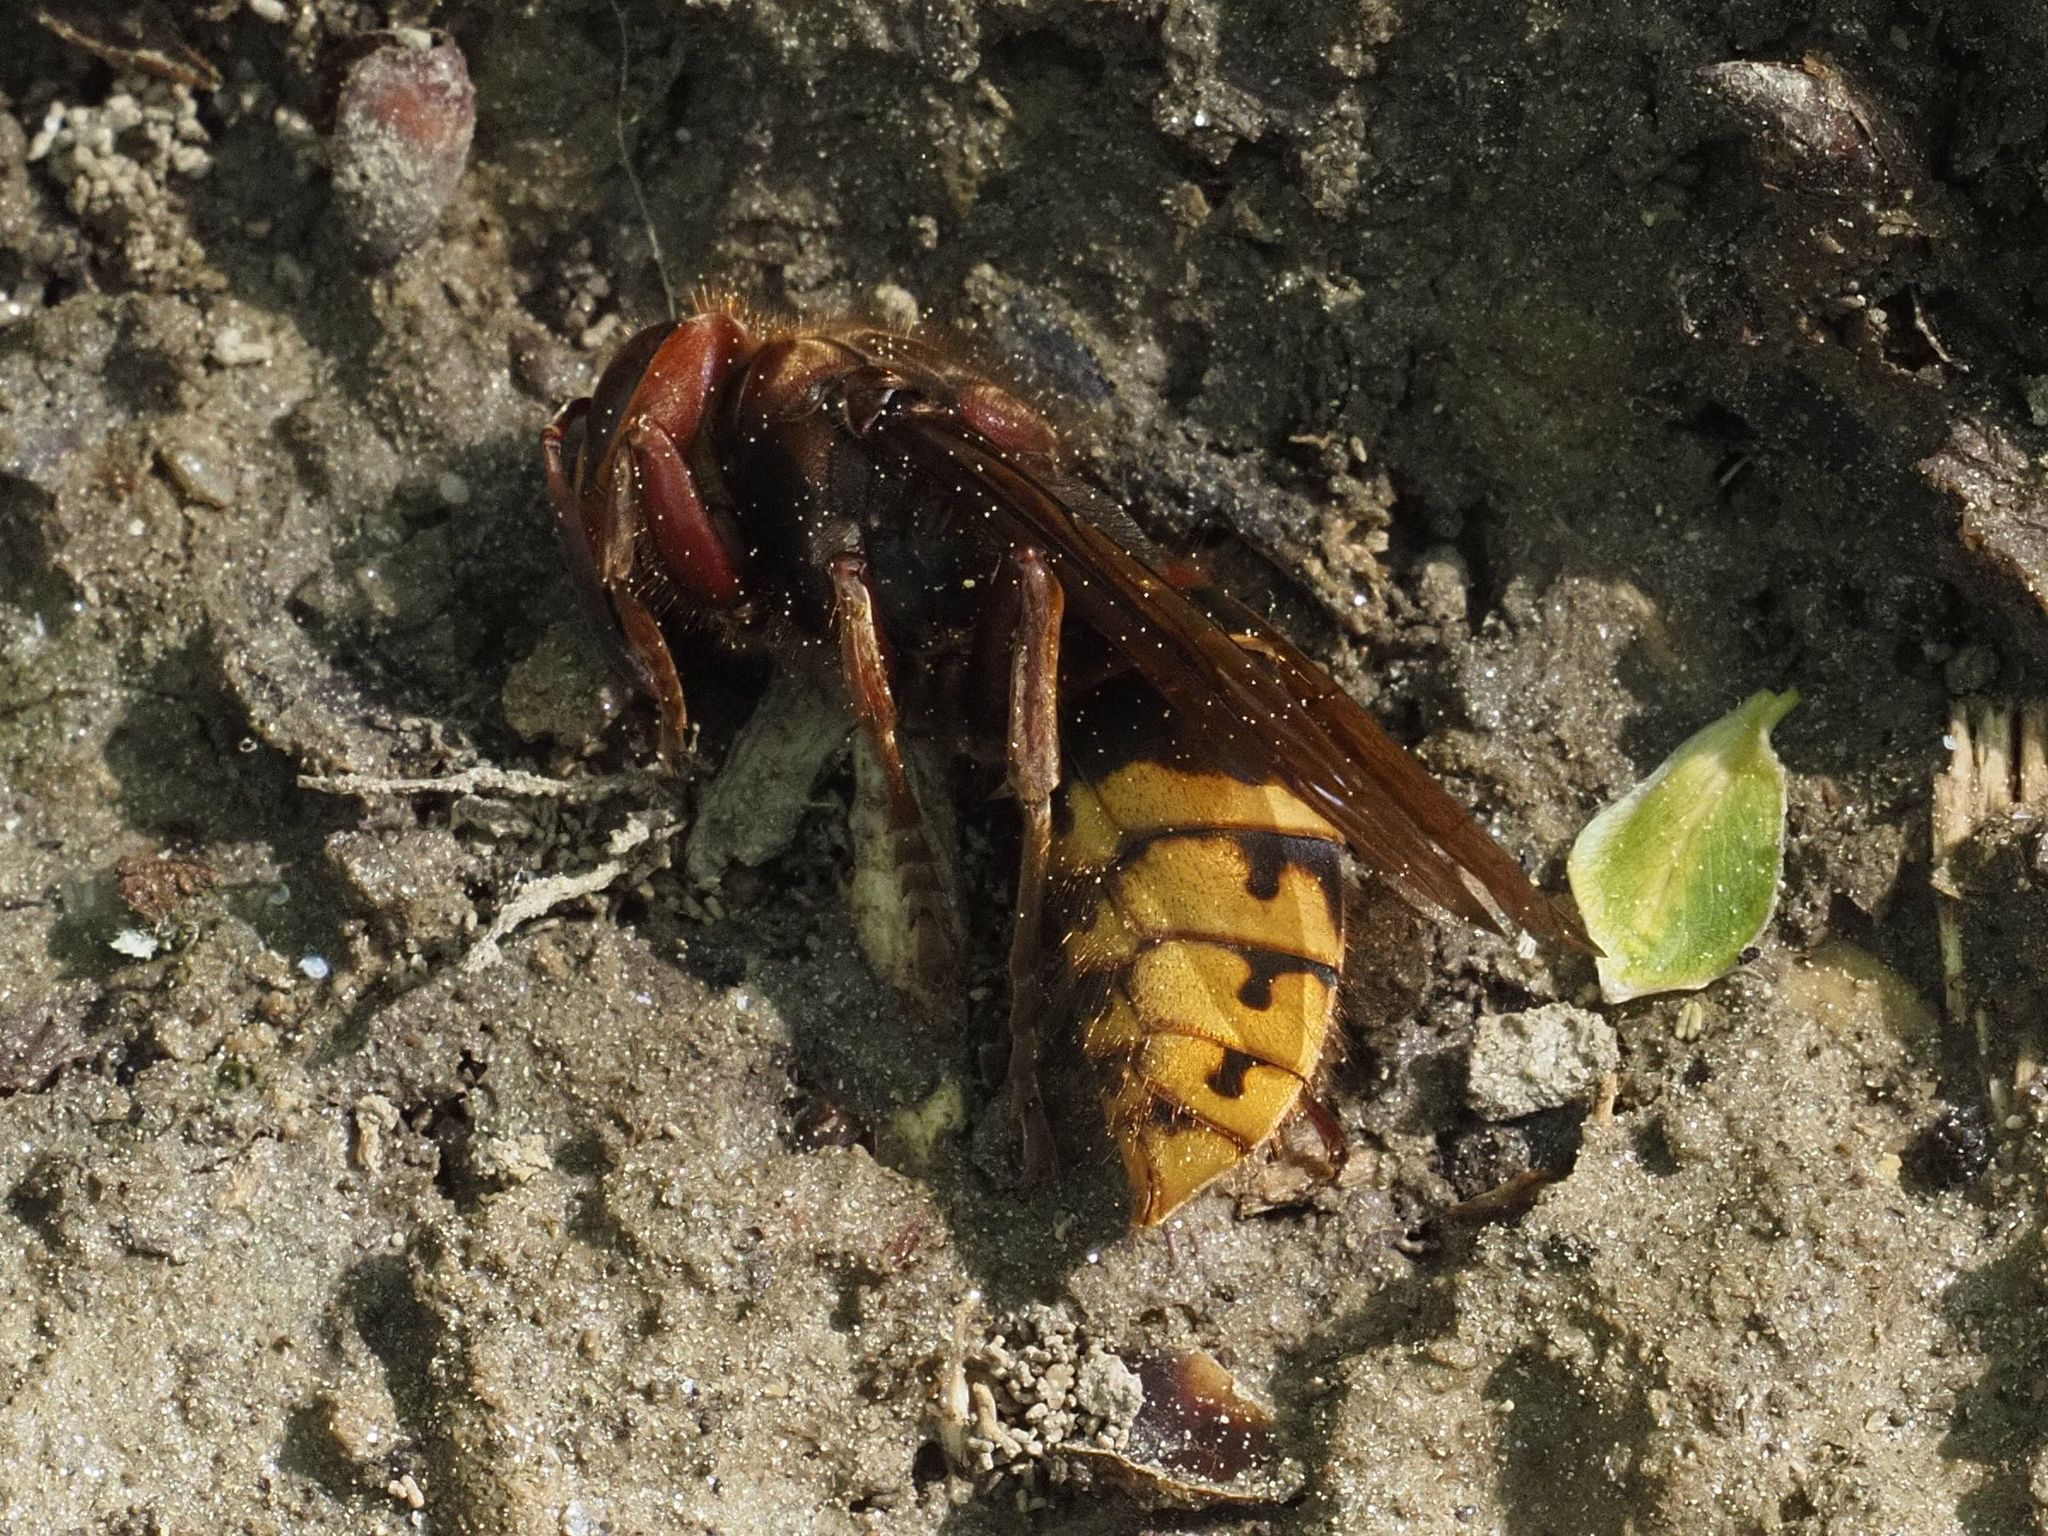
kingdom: Animalia
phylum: Arthropoda
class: Insecta
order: Hymenoptera
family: Vespidae
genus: Vespa
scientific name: Vespa crabro
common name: Hornet
